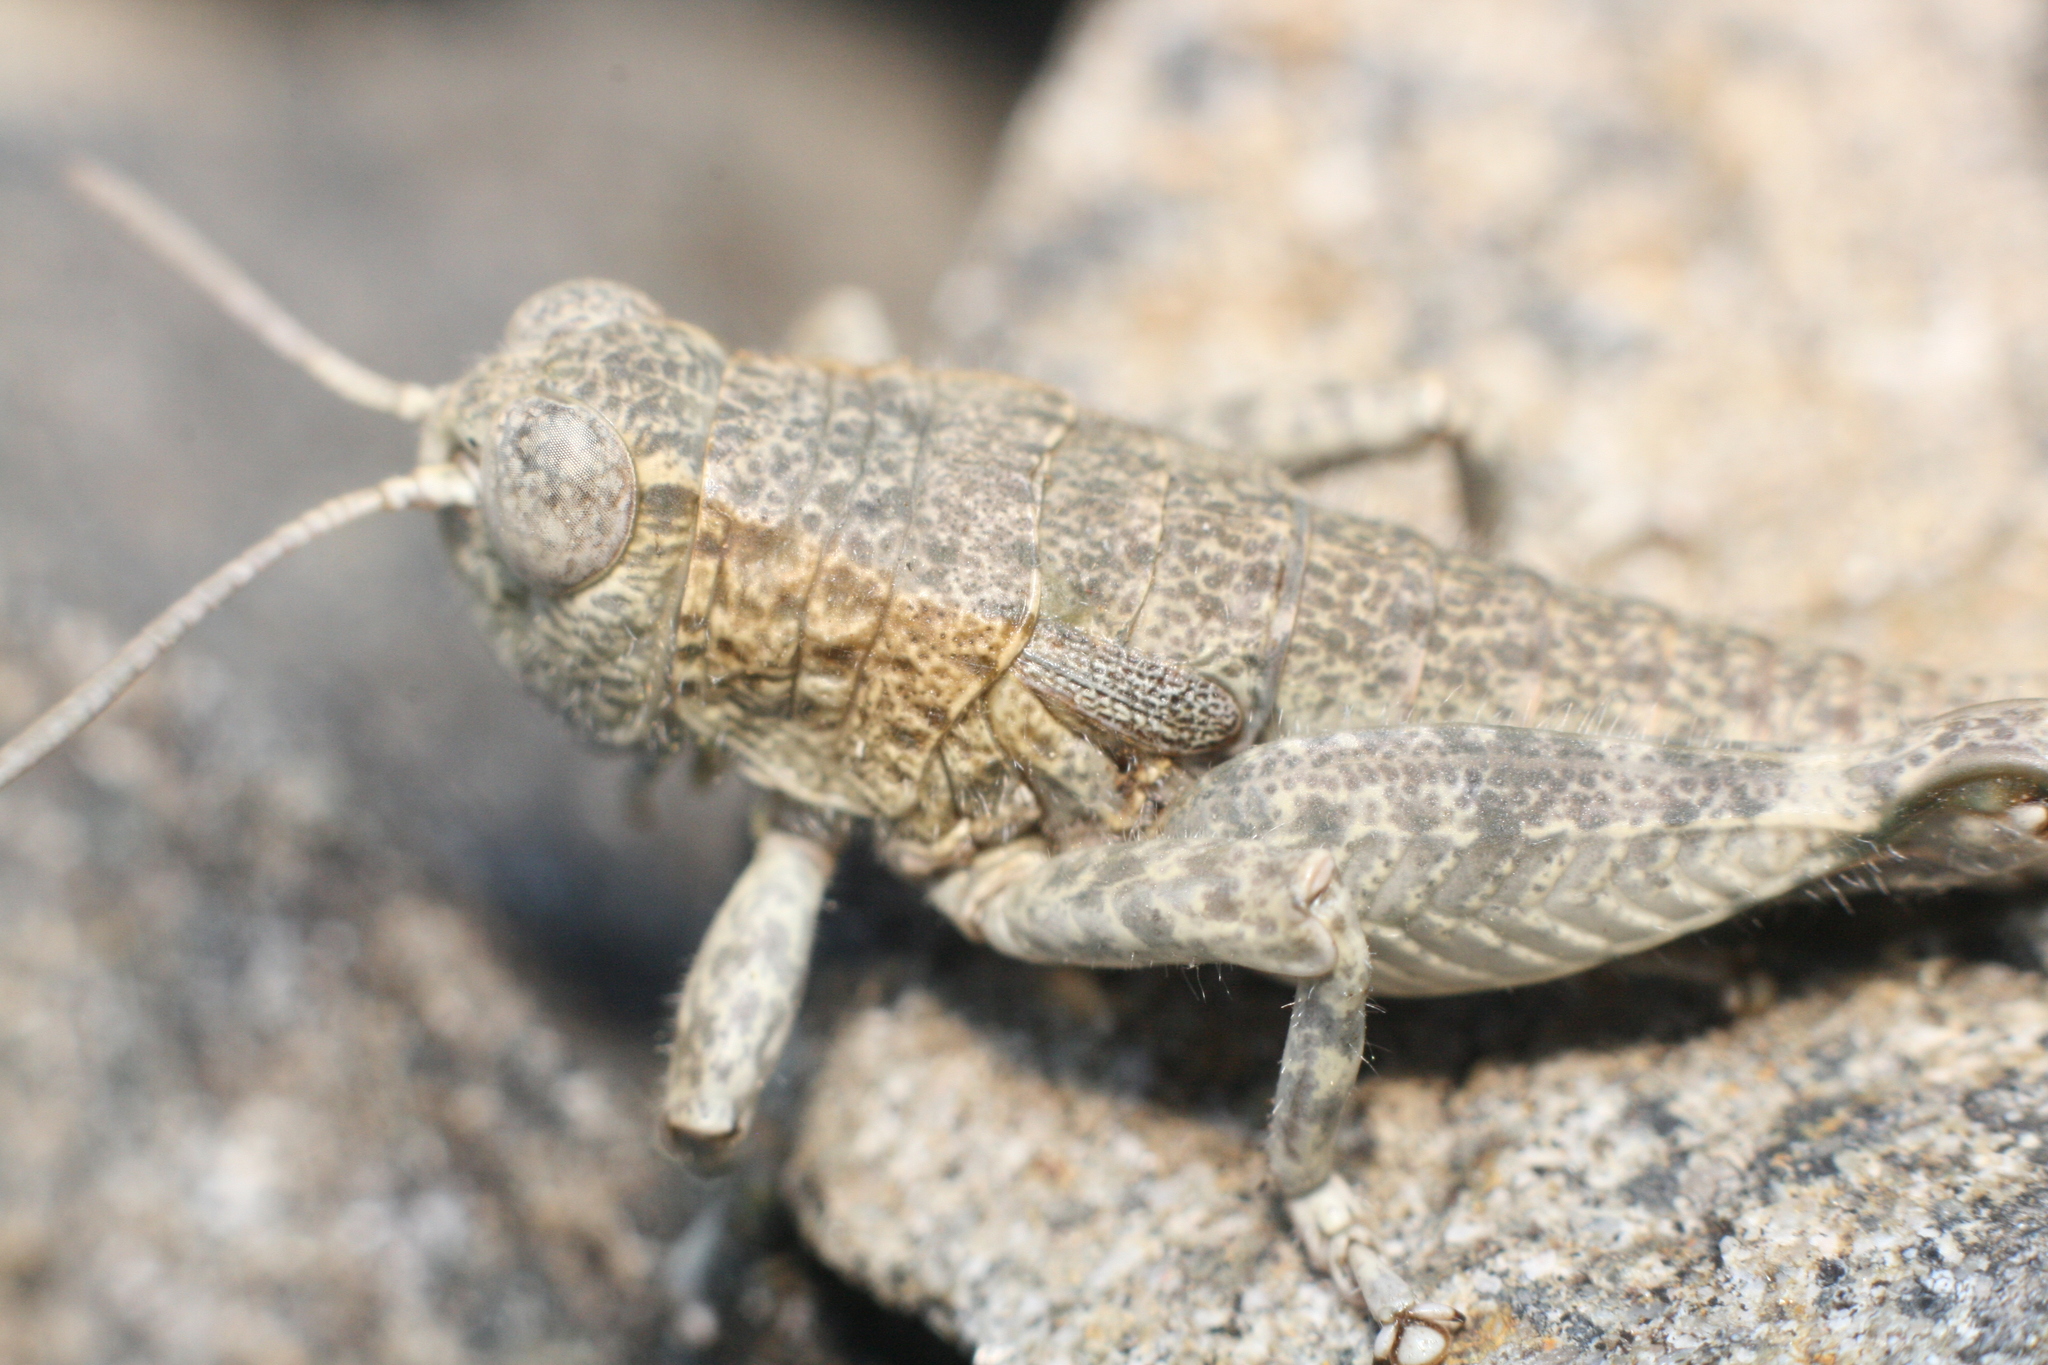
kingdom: Animalia
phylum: Arthropoda
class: Insecta
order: Orthoptera
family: Acrididae
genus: Sigaus
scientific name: Sigaus
